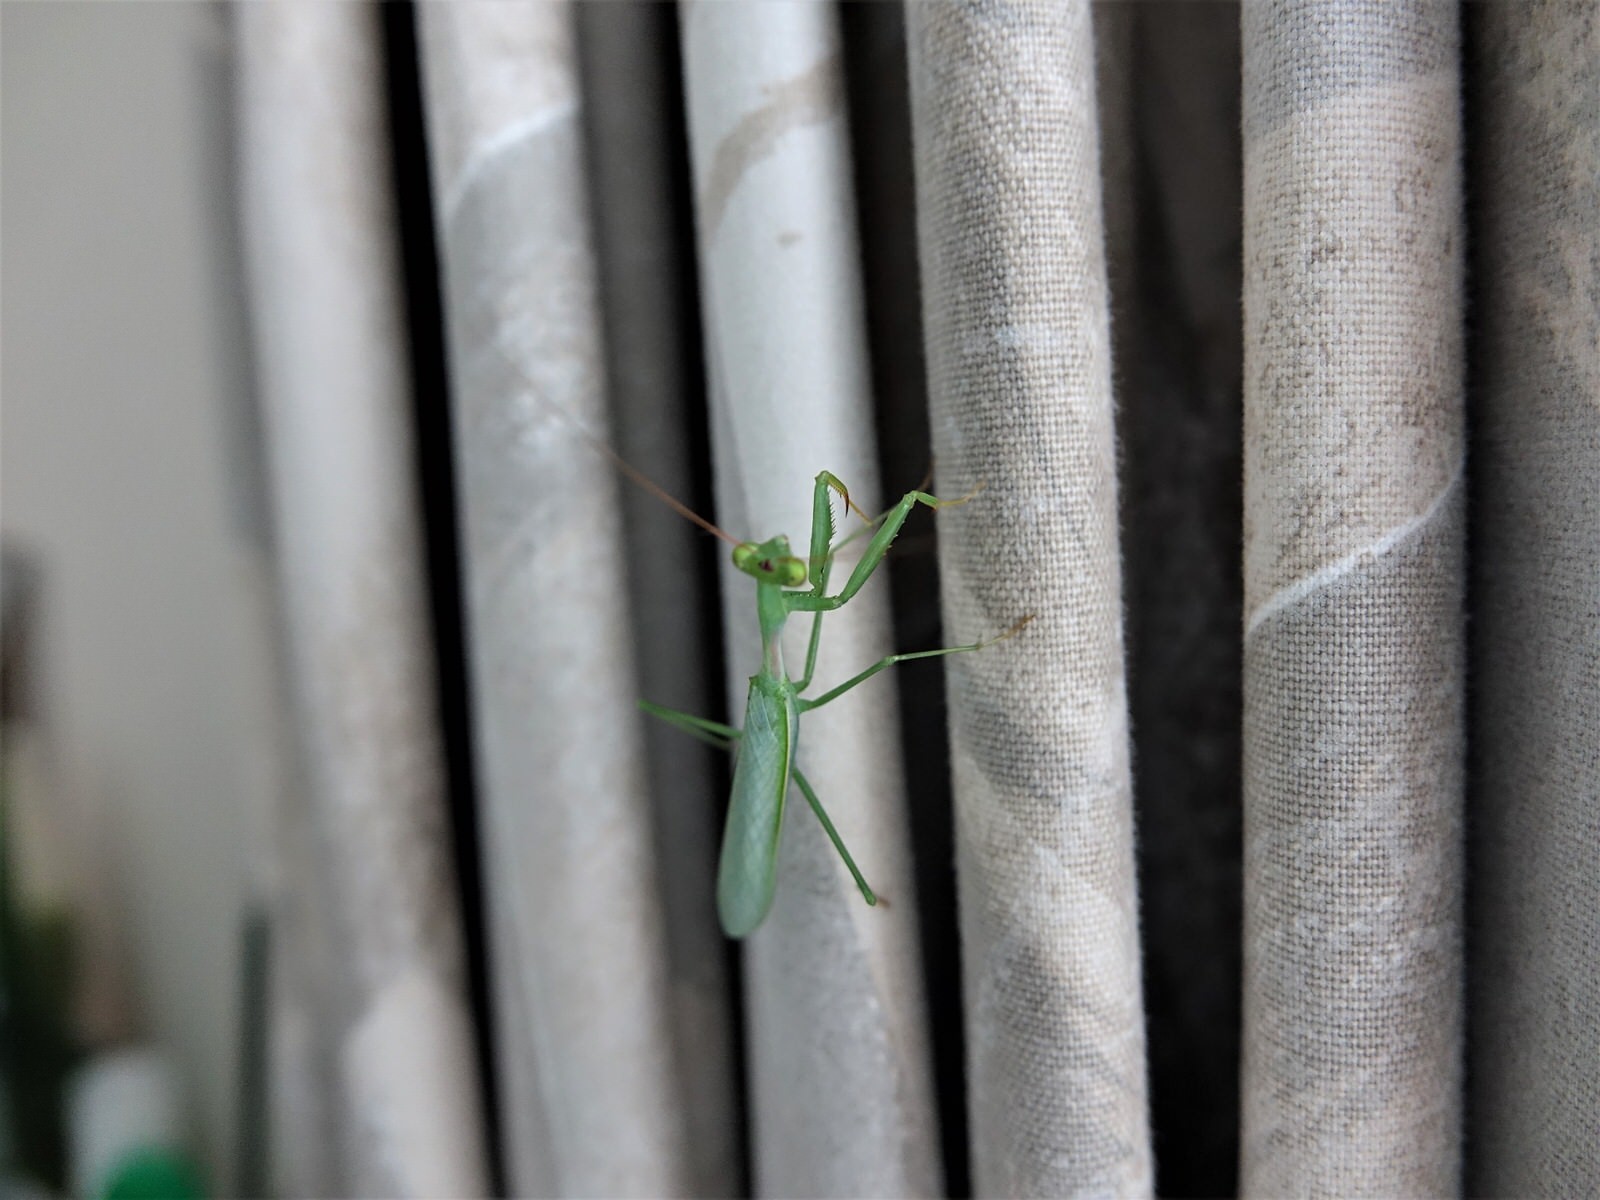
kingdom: Animalia
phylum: Arthropoda
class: Insecta
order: Mantodea
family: Miomantidae
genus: Miomantis
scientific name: Miomantis caffra
